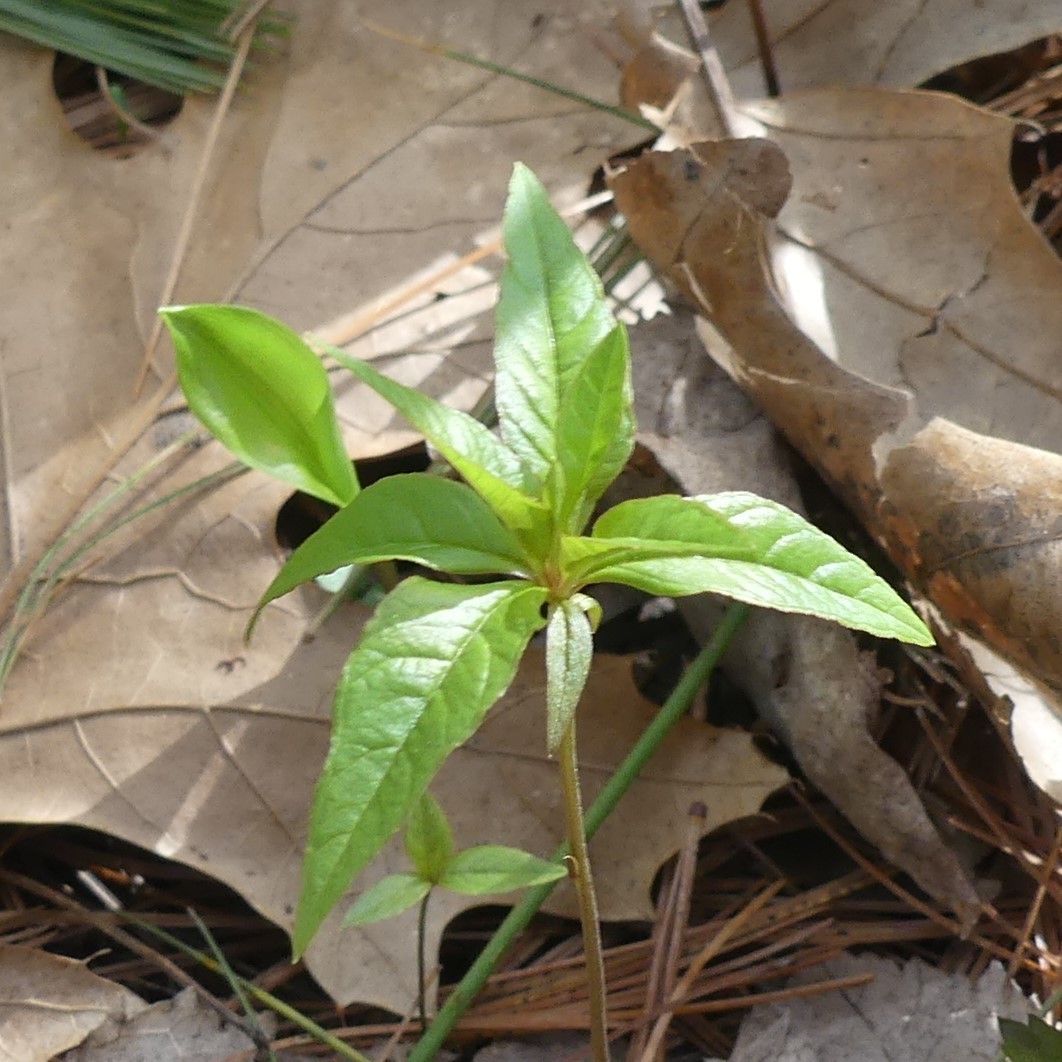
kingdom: Plantae
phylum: Tracheophyta
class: Magnoliopsida
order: Ericales
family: Primulaceae
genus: Lysimachia
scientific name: Lysimachia borealis
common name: American starflower
